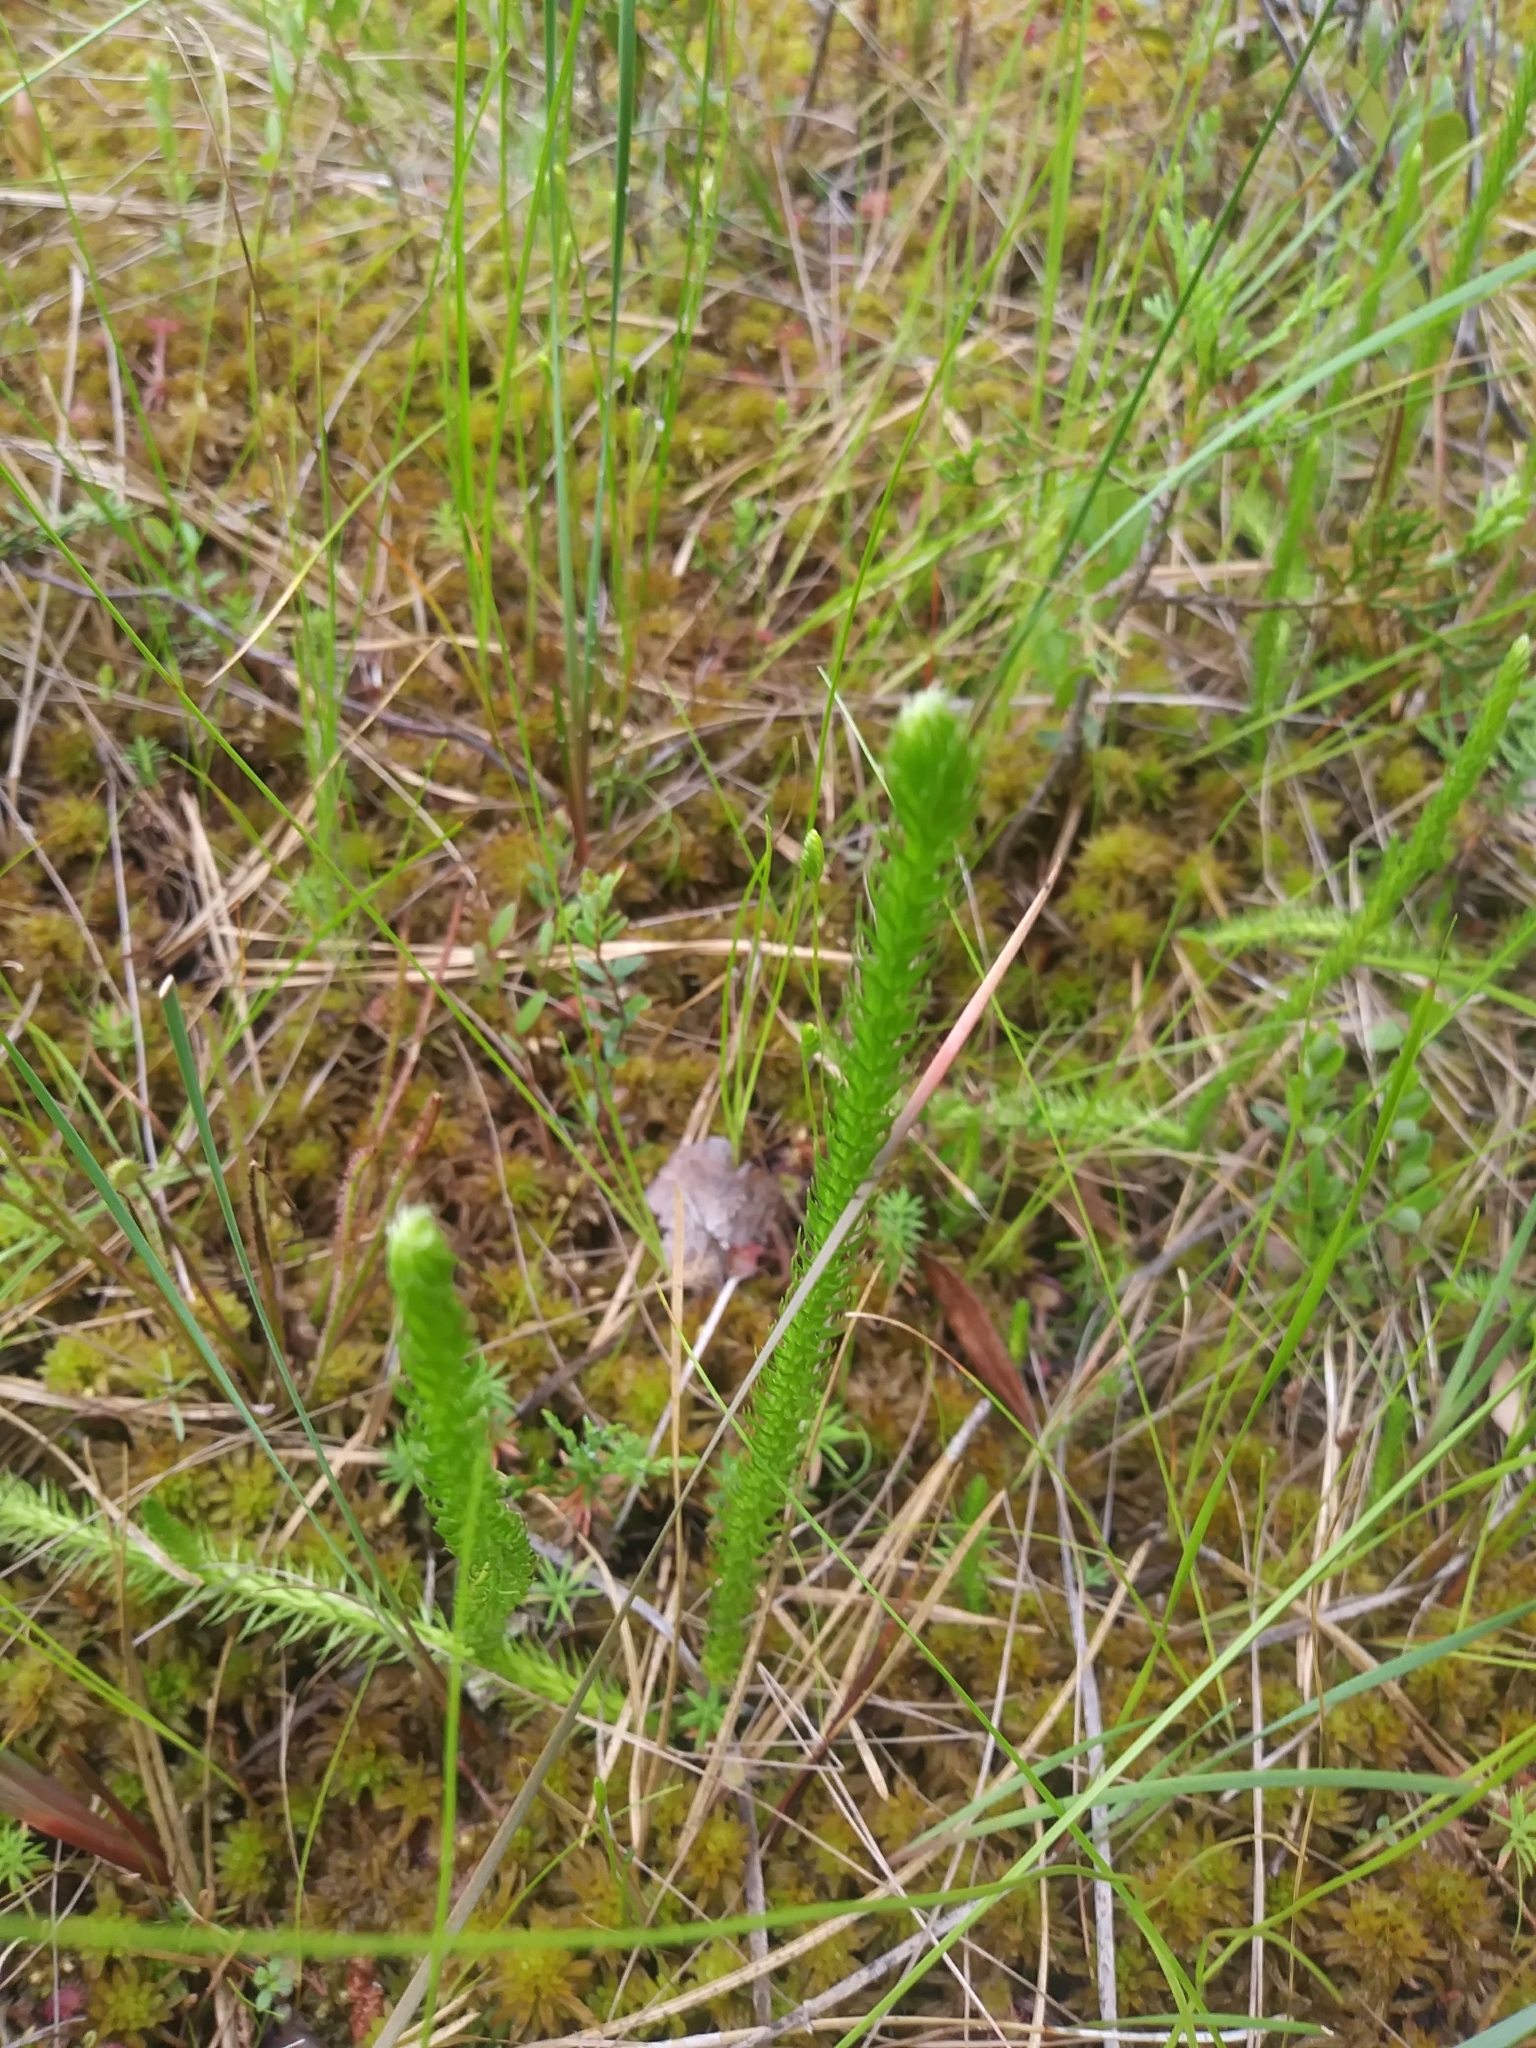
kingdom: Plantae
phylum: Tracheophyta
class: Lycopodiopsida
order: Lycopodiales
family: Lycopodiaceae
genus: Lycopodiella
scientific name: Lycopodiella appressa
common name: Appressed bog clubmoss
